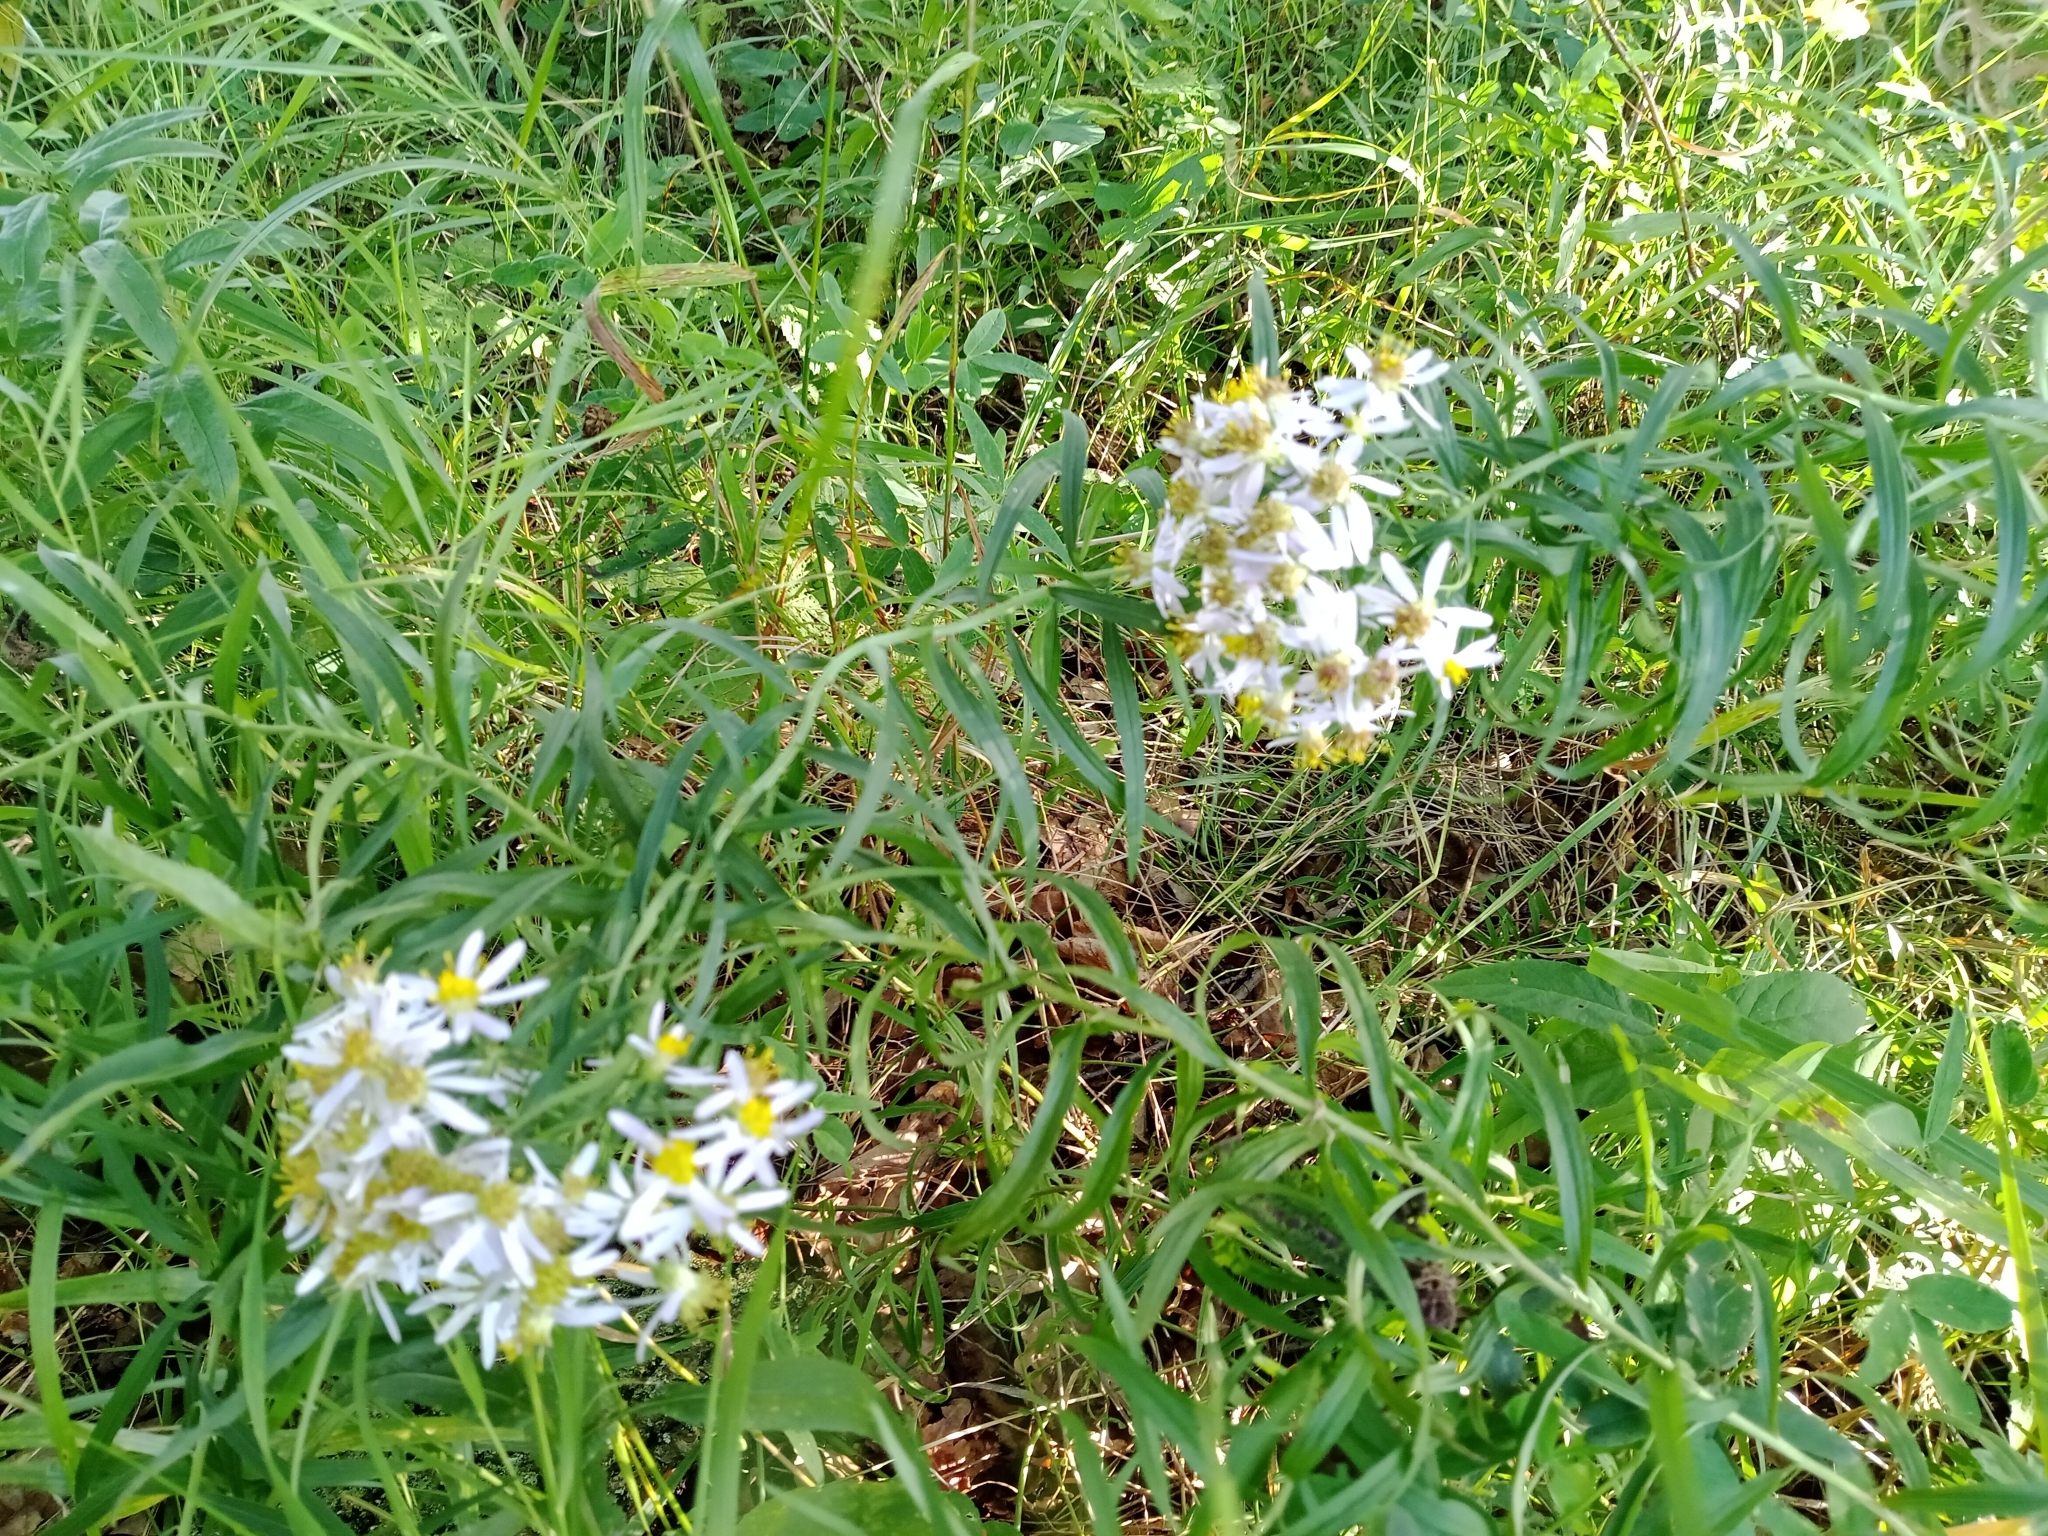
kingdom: Plantae
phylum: Tracheophyta
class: Magnoliopsida
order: Asterales
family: Asteraceae
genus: Galatella
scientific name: Galatella sedifolia
